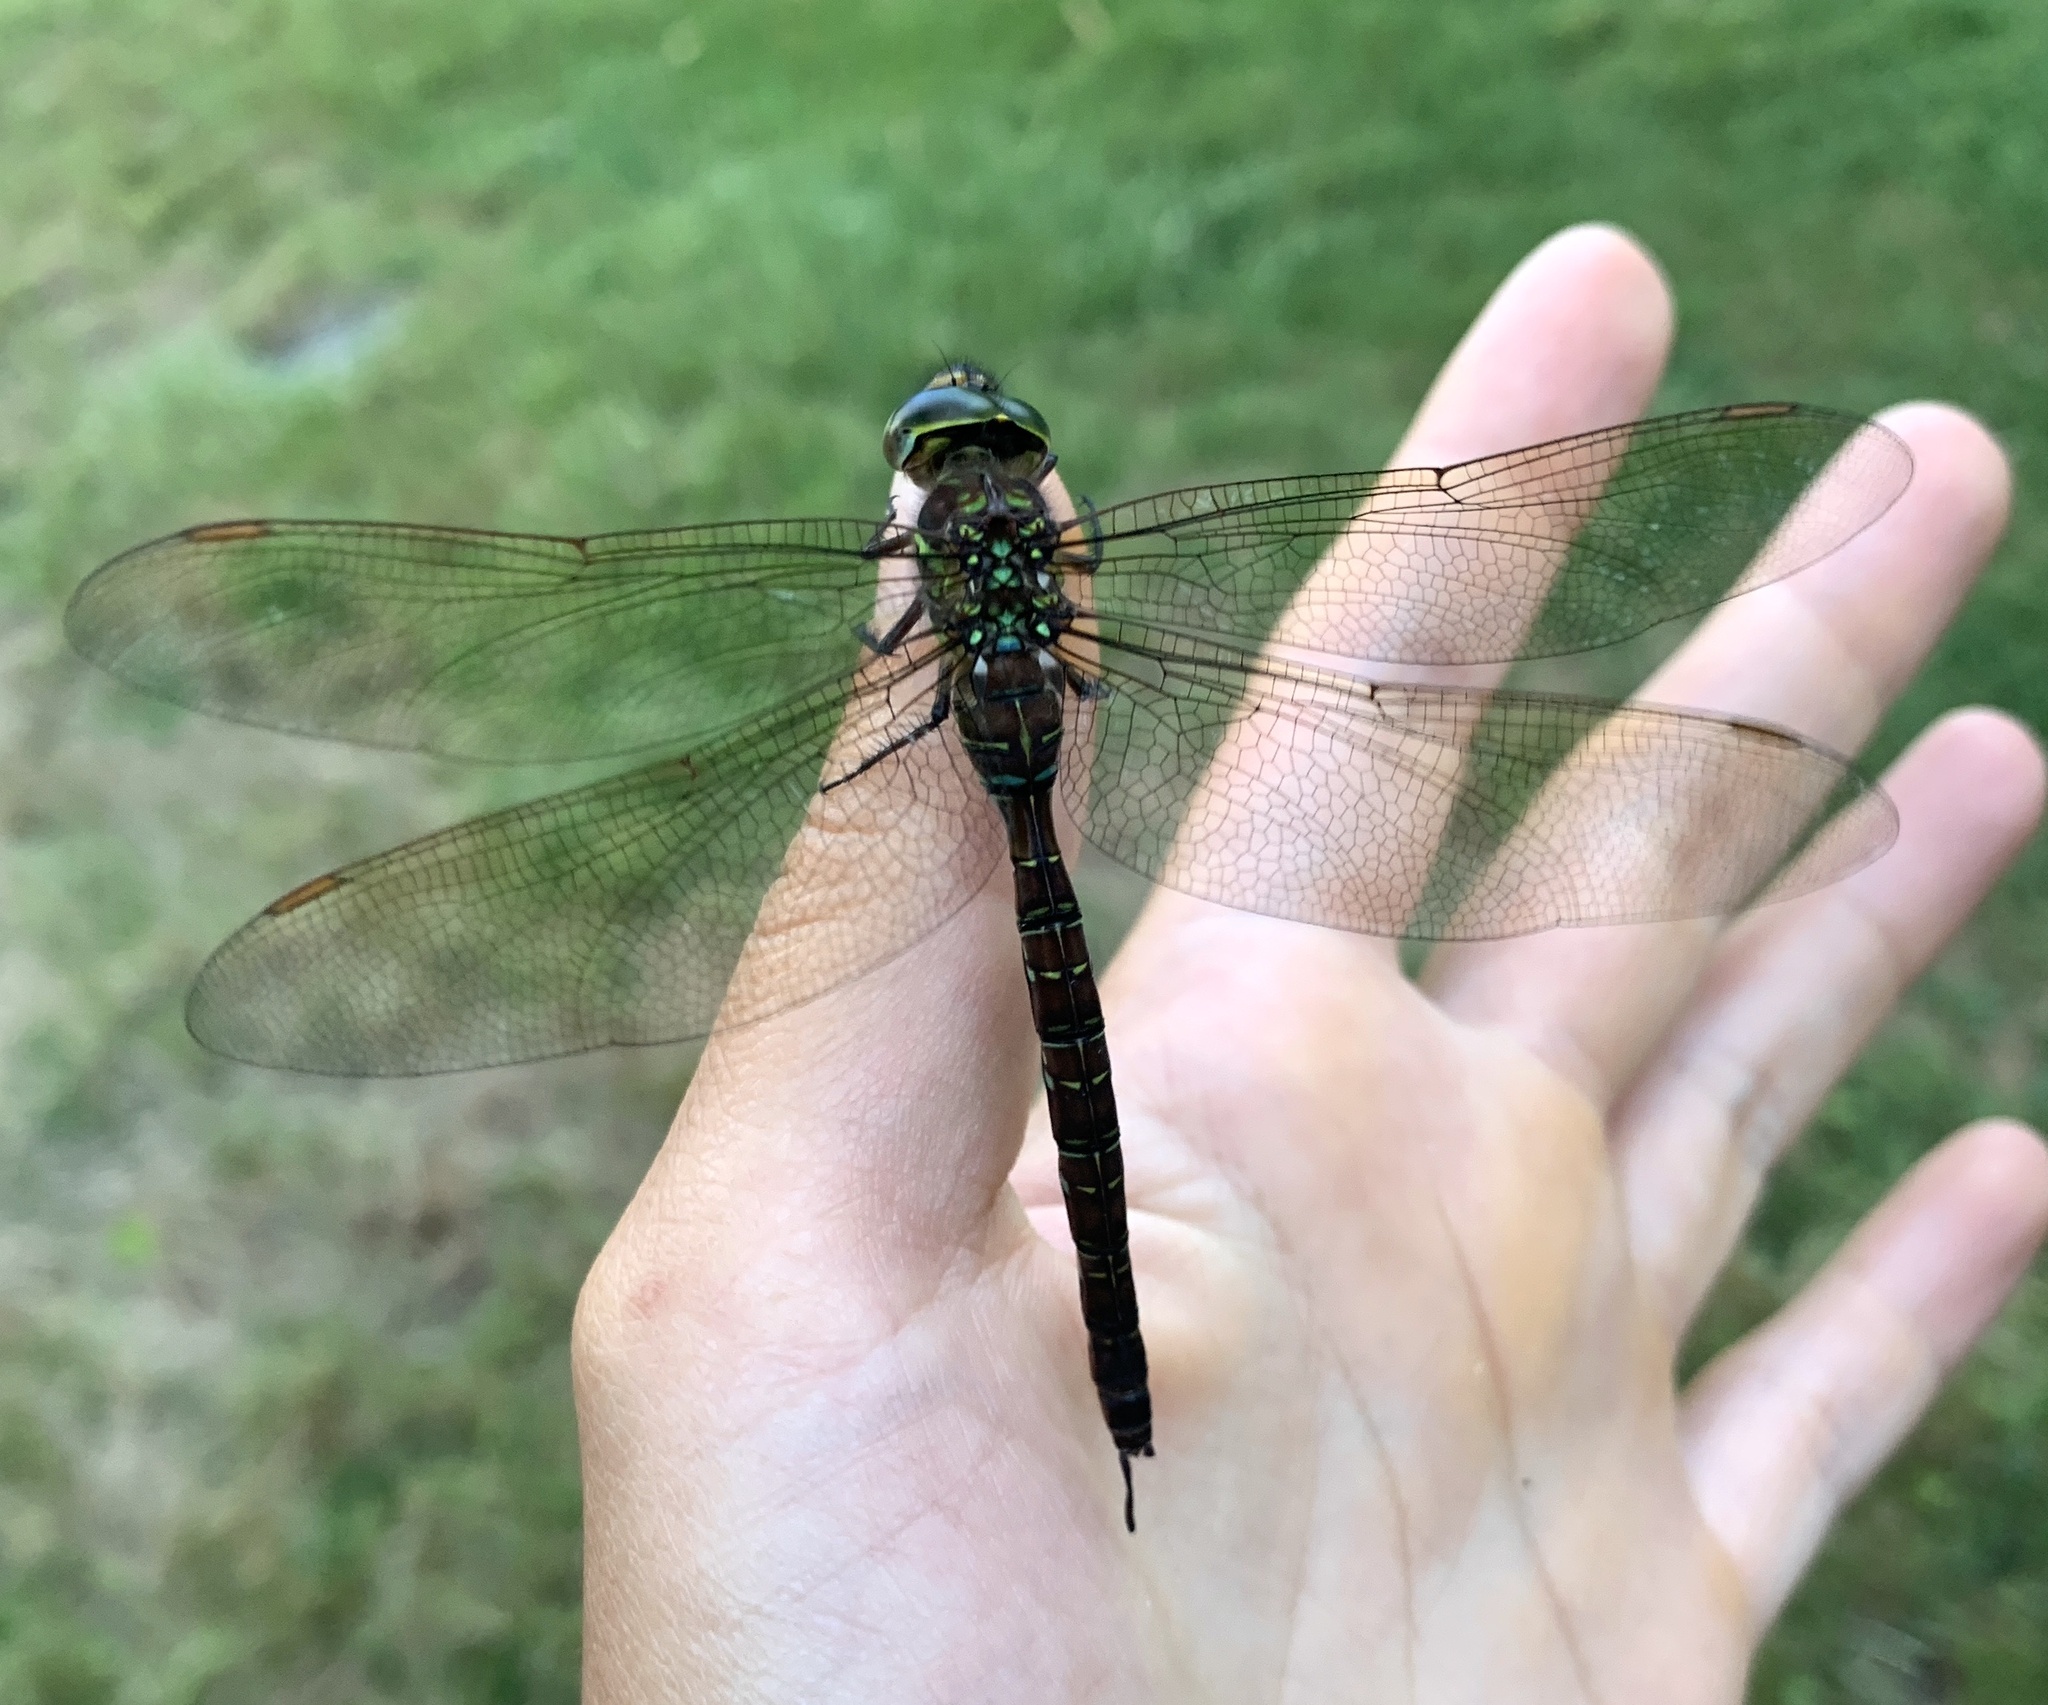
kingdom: Animalia
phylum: Arthropoda
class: Insecta
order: Odonata
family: Aeshnidae
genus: Aeshna
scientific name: Aeshna umbrosa
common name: Shadow darner
